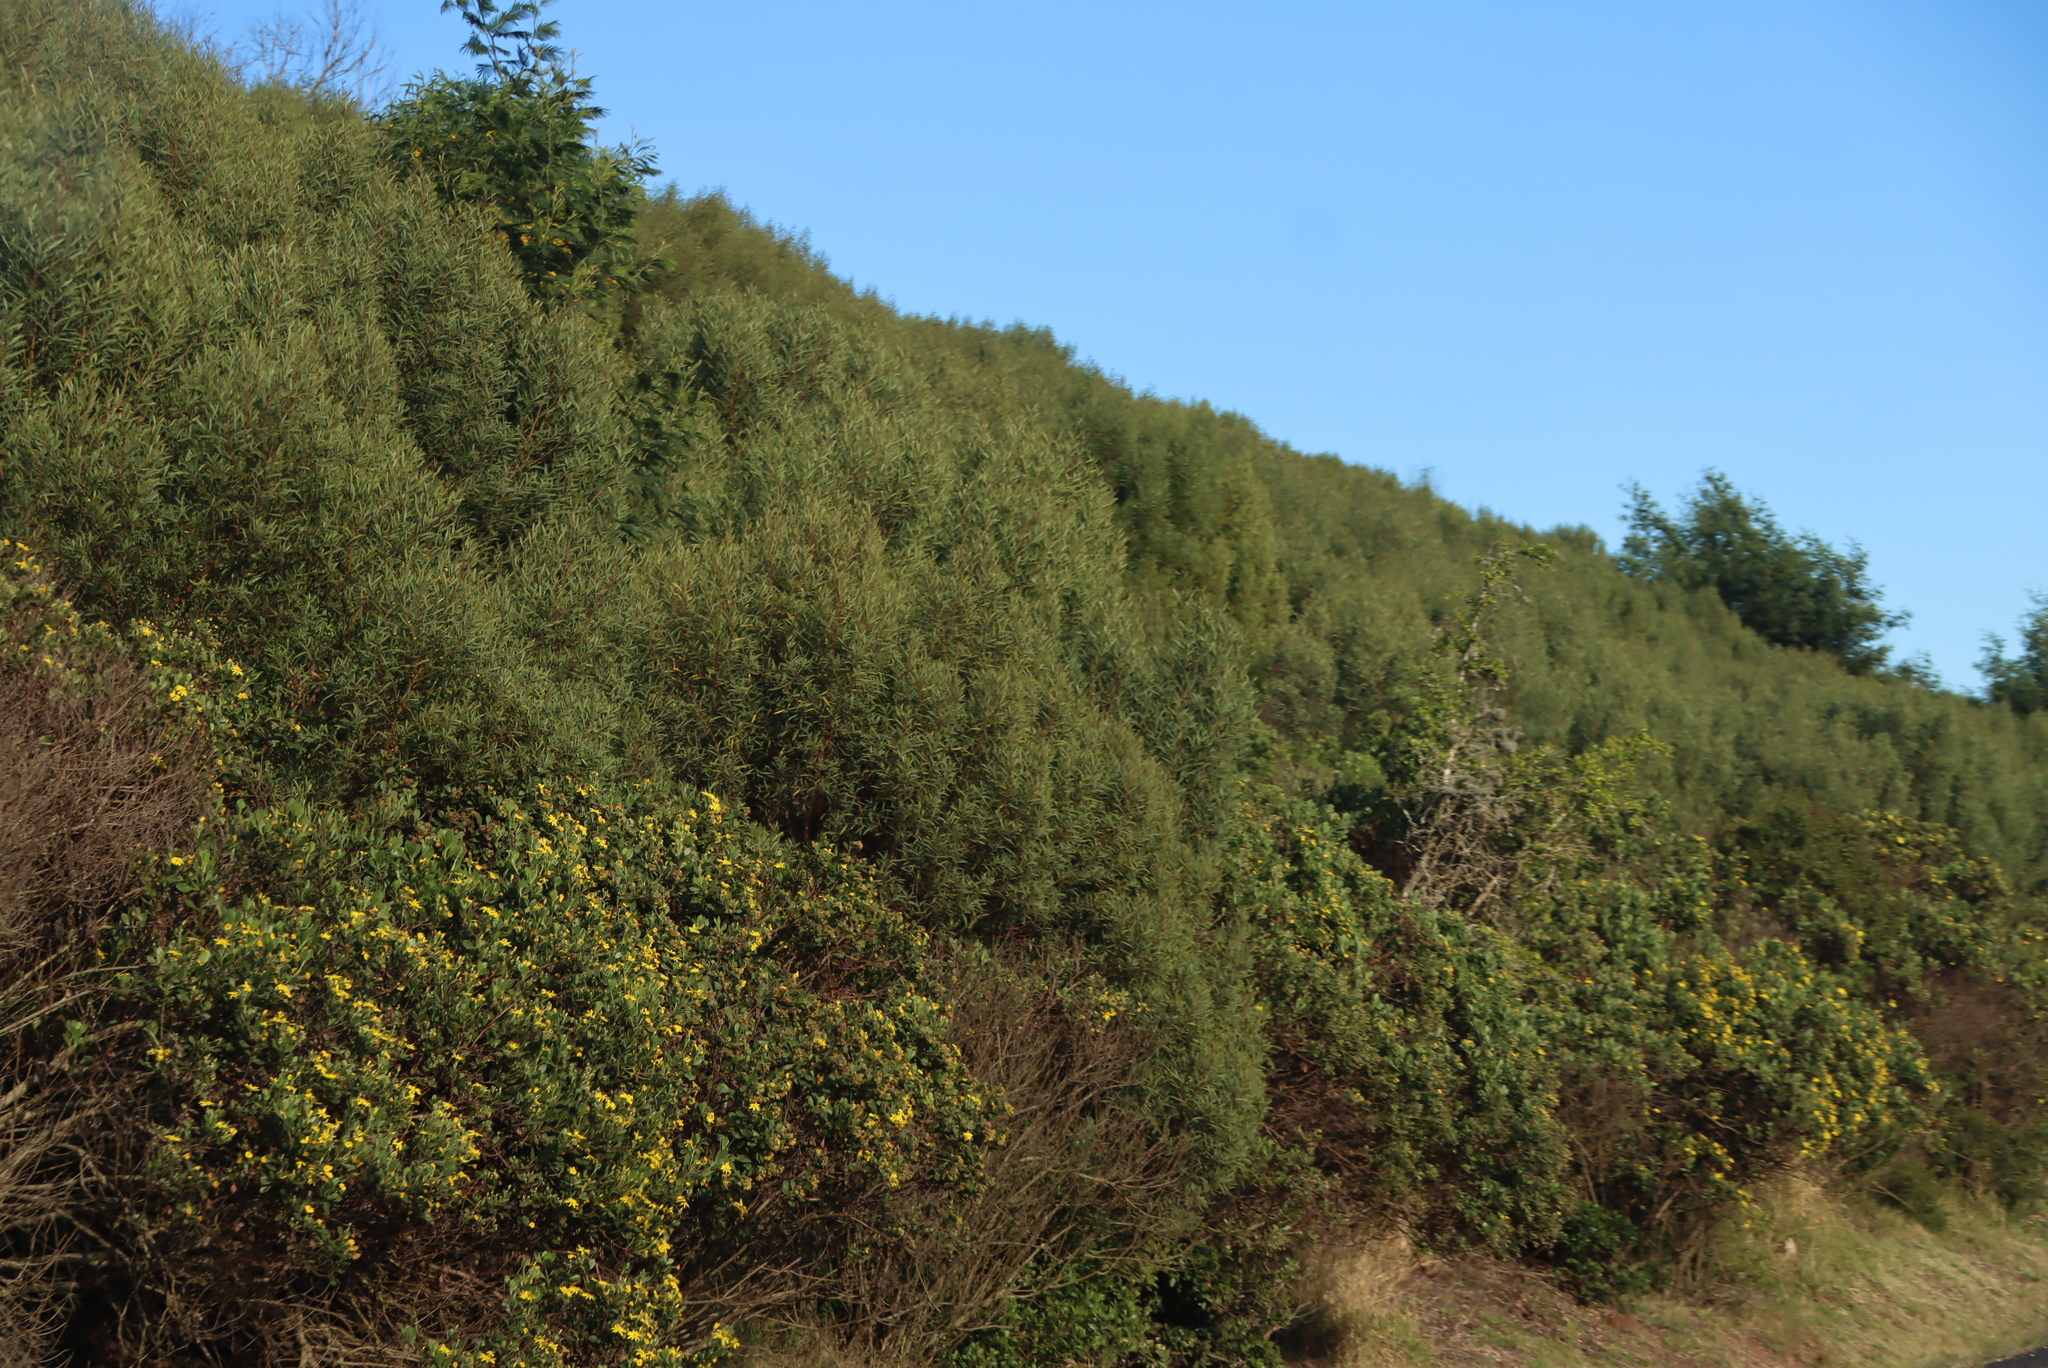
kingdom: Plantae
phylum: Tracheophyta
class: Magnoliopsida
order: Fabales
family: Fabaceae
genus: Acacia
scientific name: Acacia longifolia
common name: Sydney golden wattle
